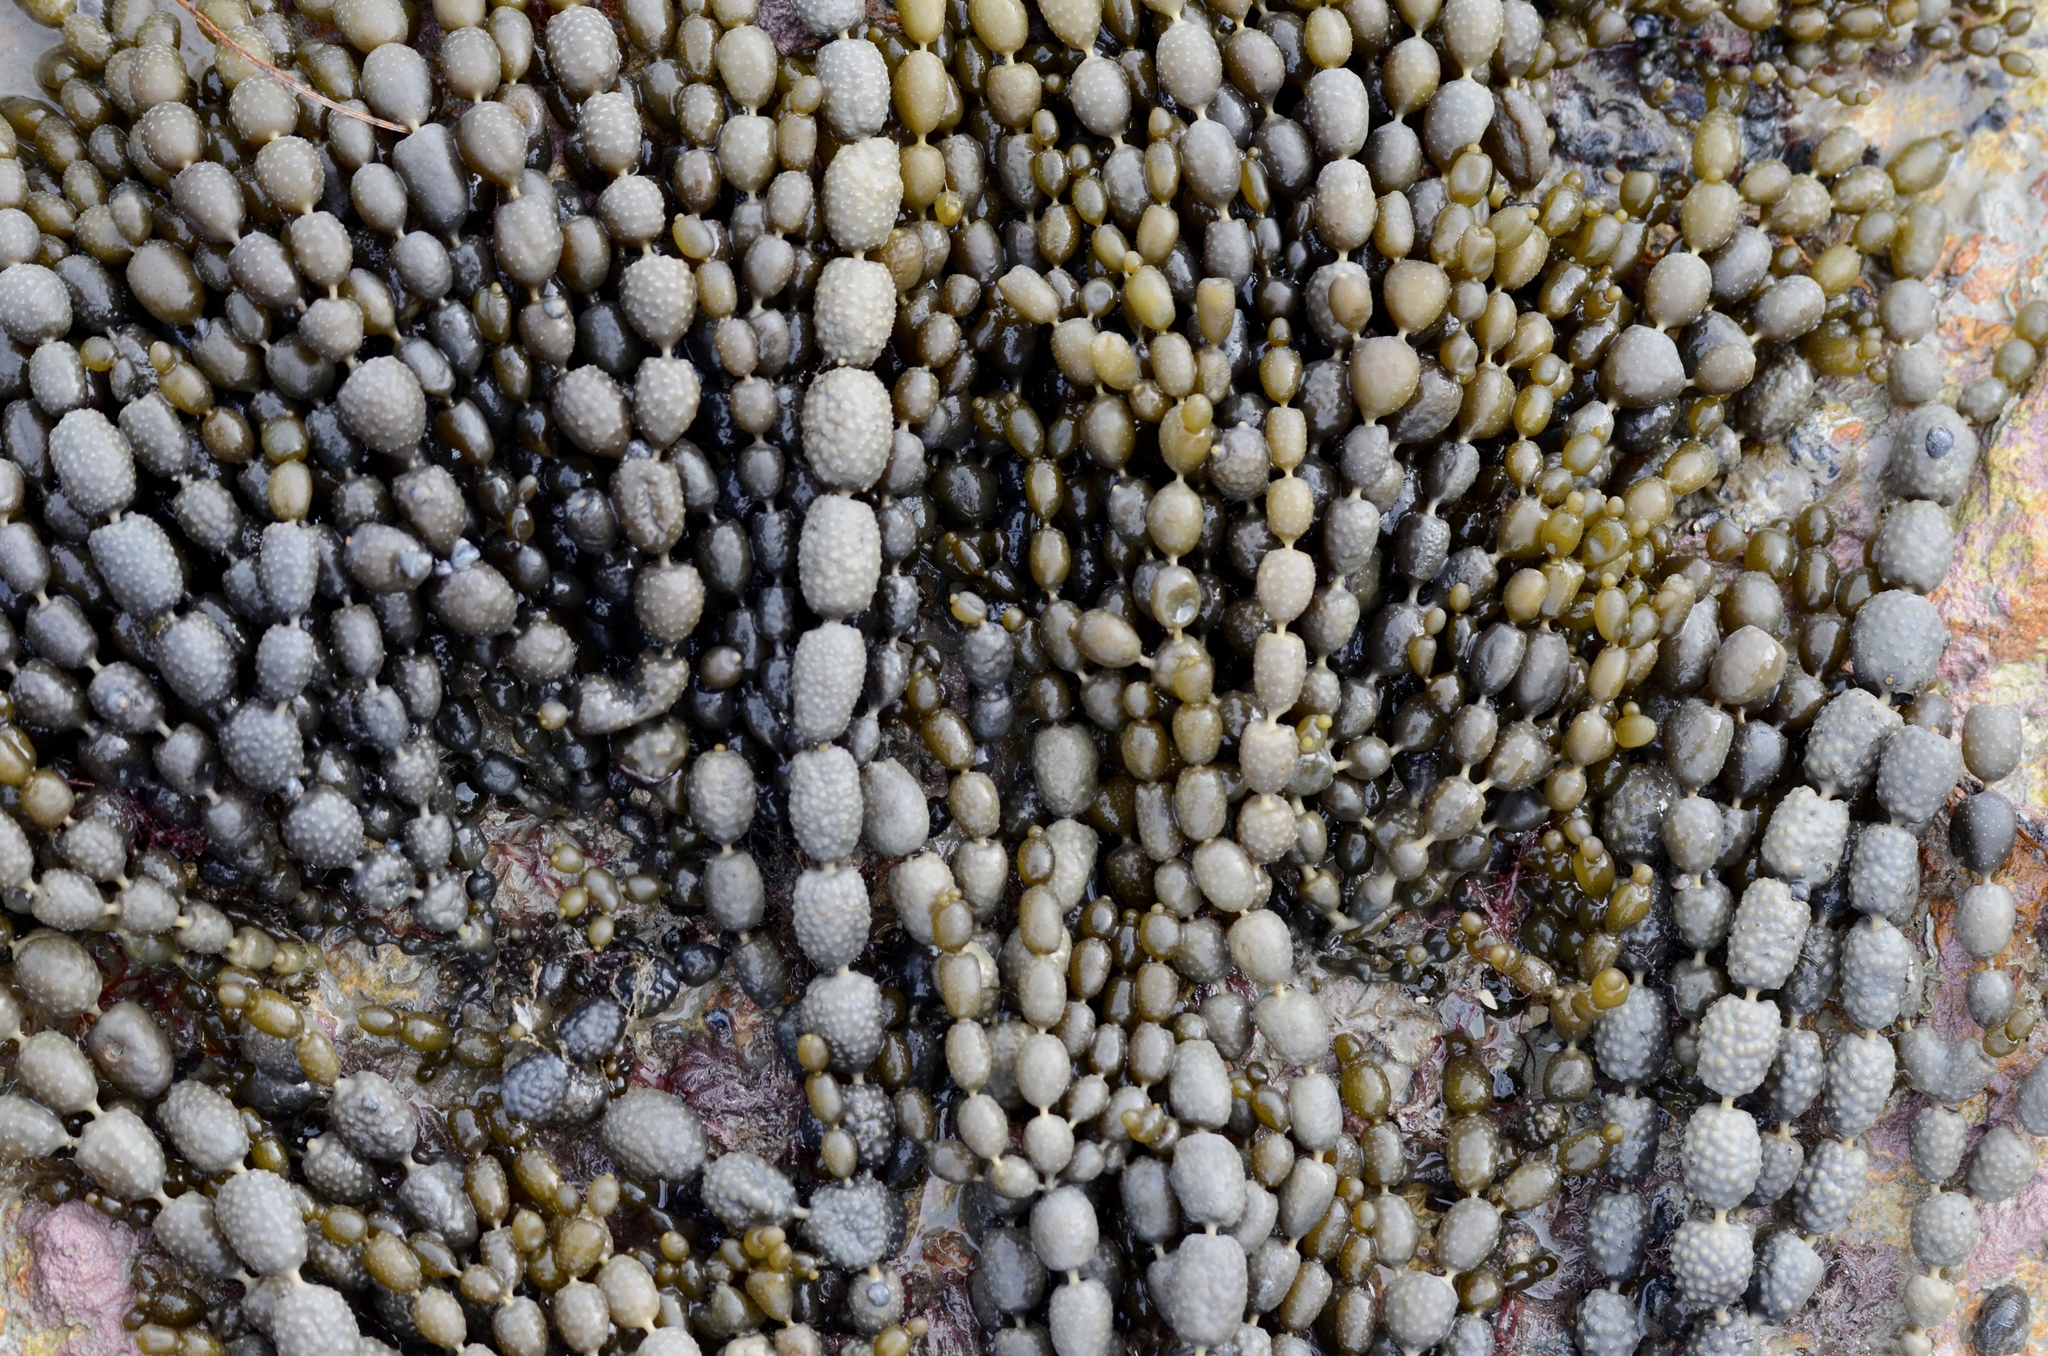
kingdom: Chromista
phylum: Ochrophyta
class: Phaeophyceae
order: Fucales
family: Hormosiraceae
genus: Hormosira
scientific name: Hormosira banksii
